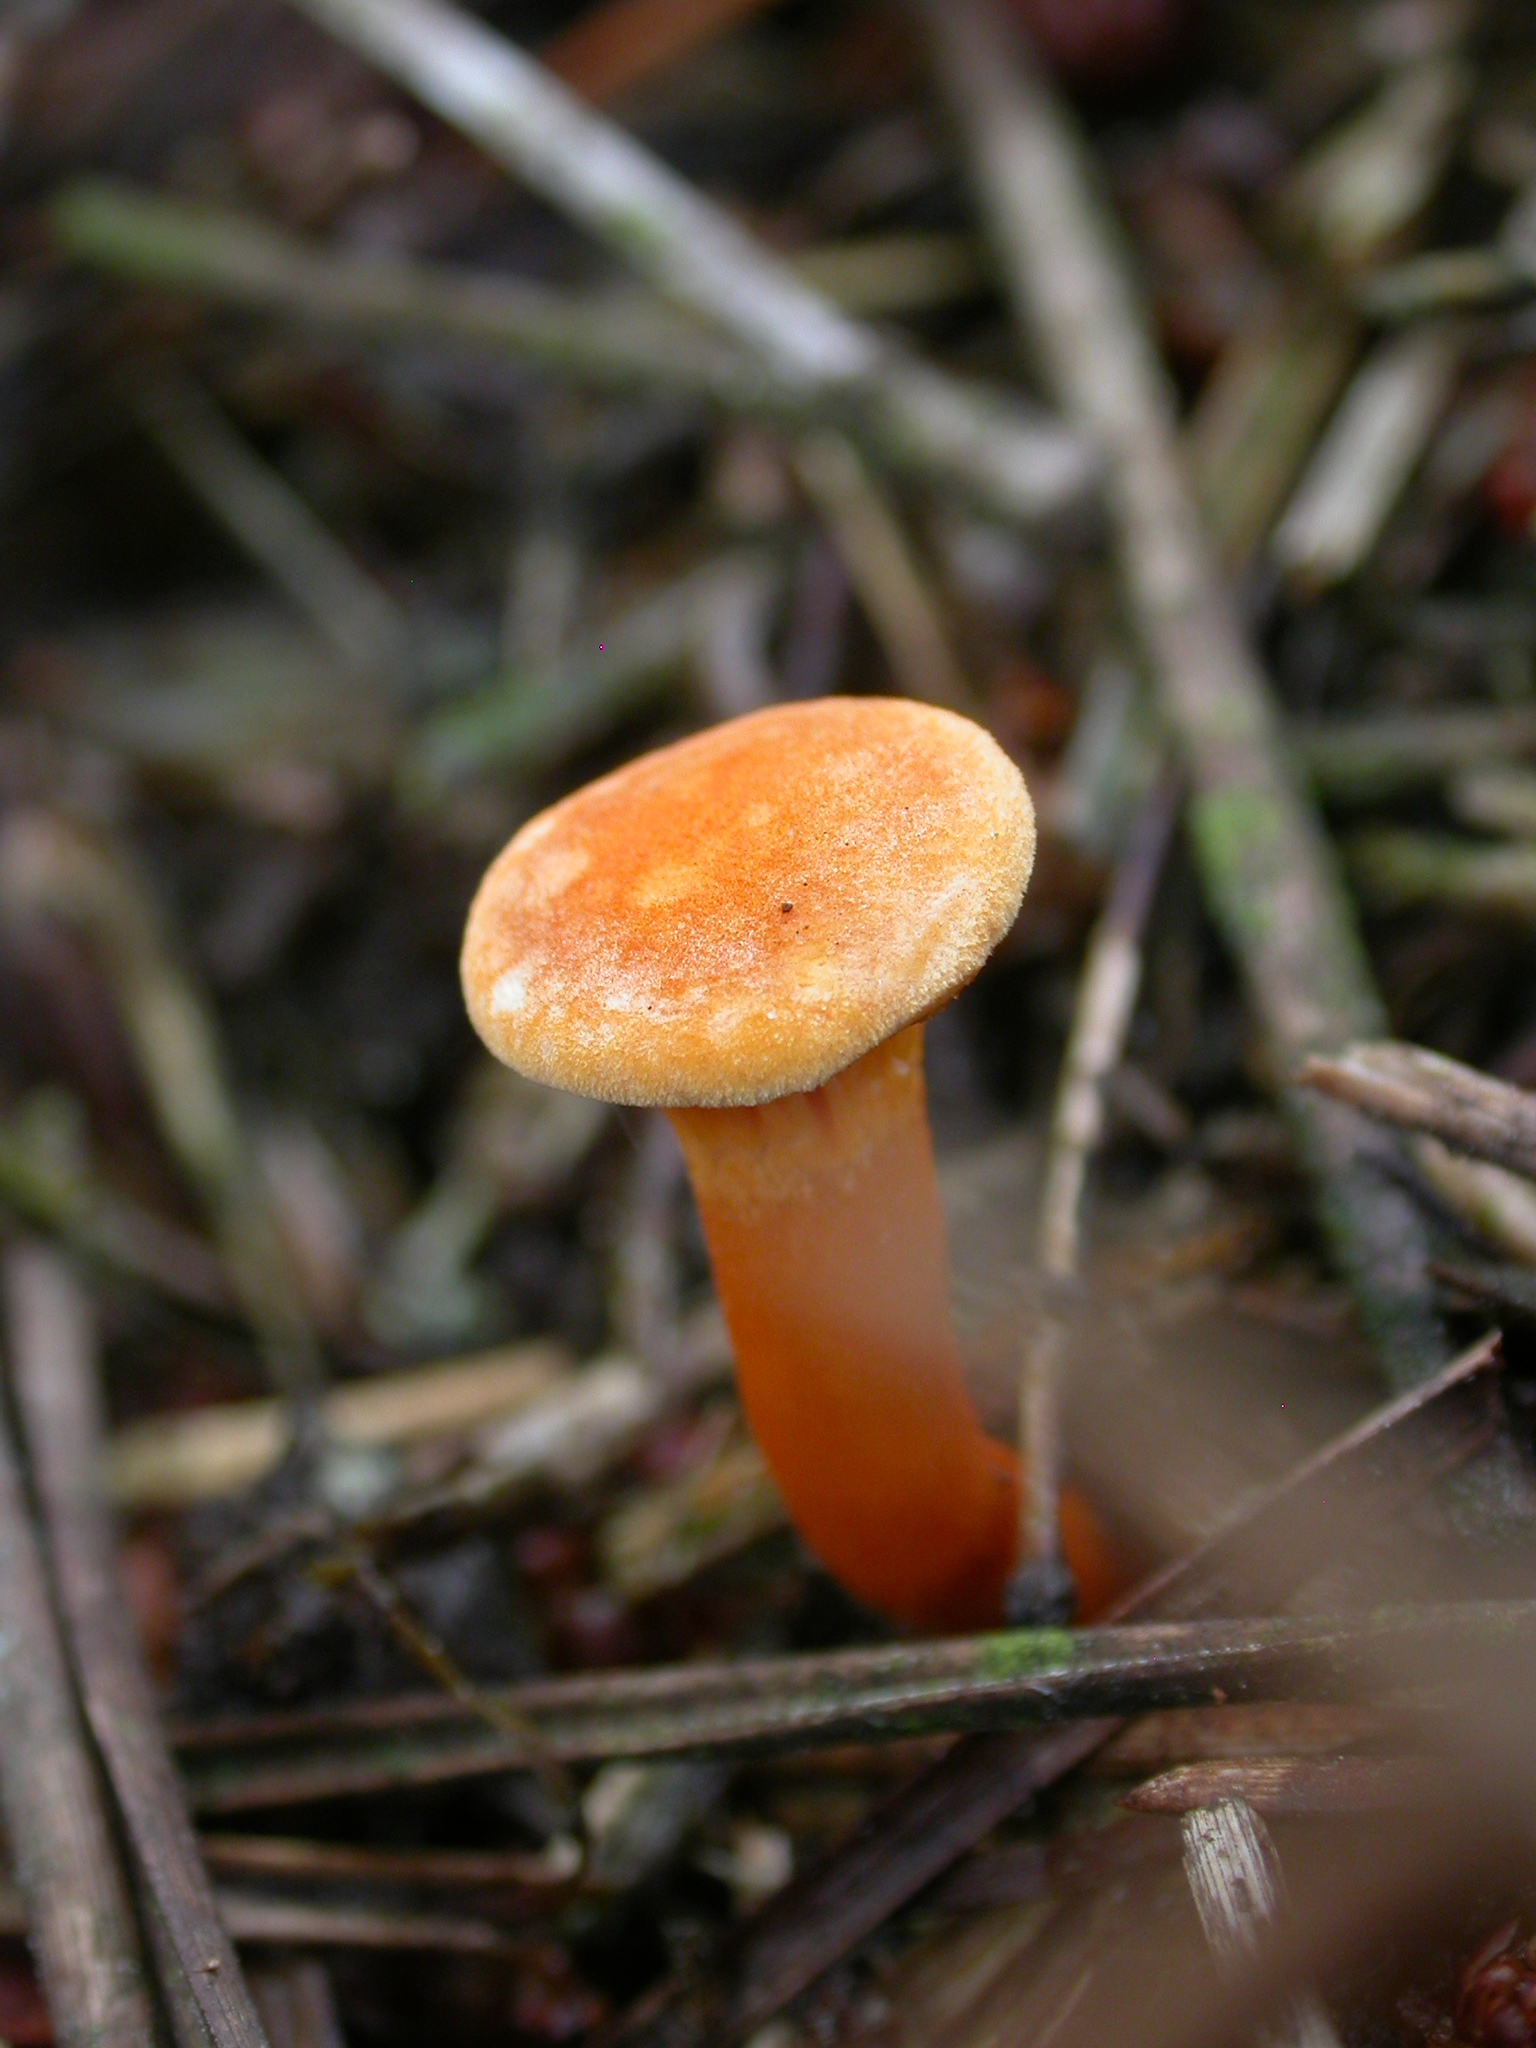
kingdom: Fungi
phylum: Basidiomycota
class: Agaricomycetes
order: Boletales
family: Hygrophoropsidaceae
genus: Hygrophoropsis
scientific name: Hygrophoropsis aurantiaca
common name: False chanterelle
